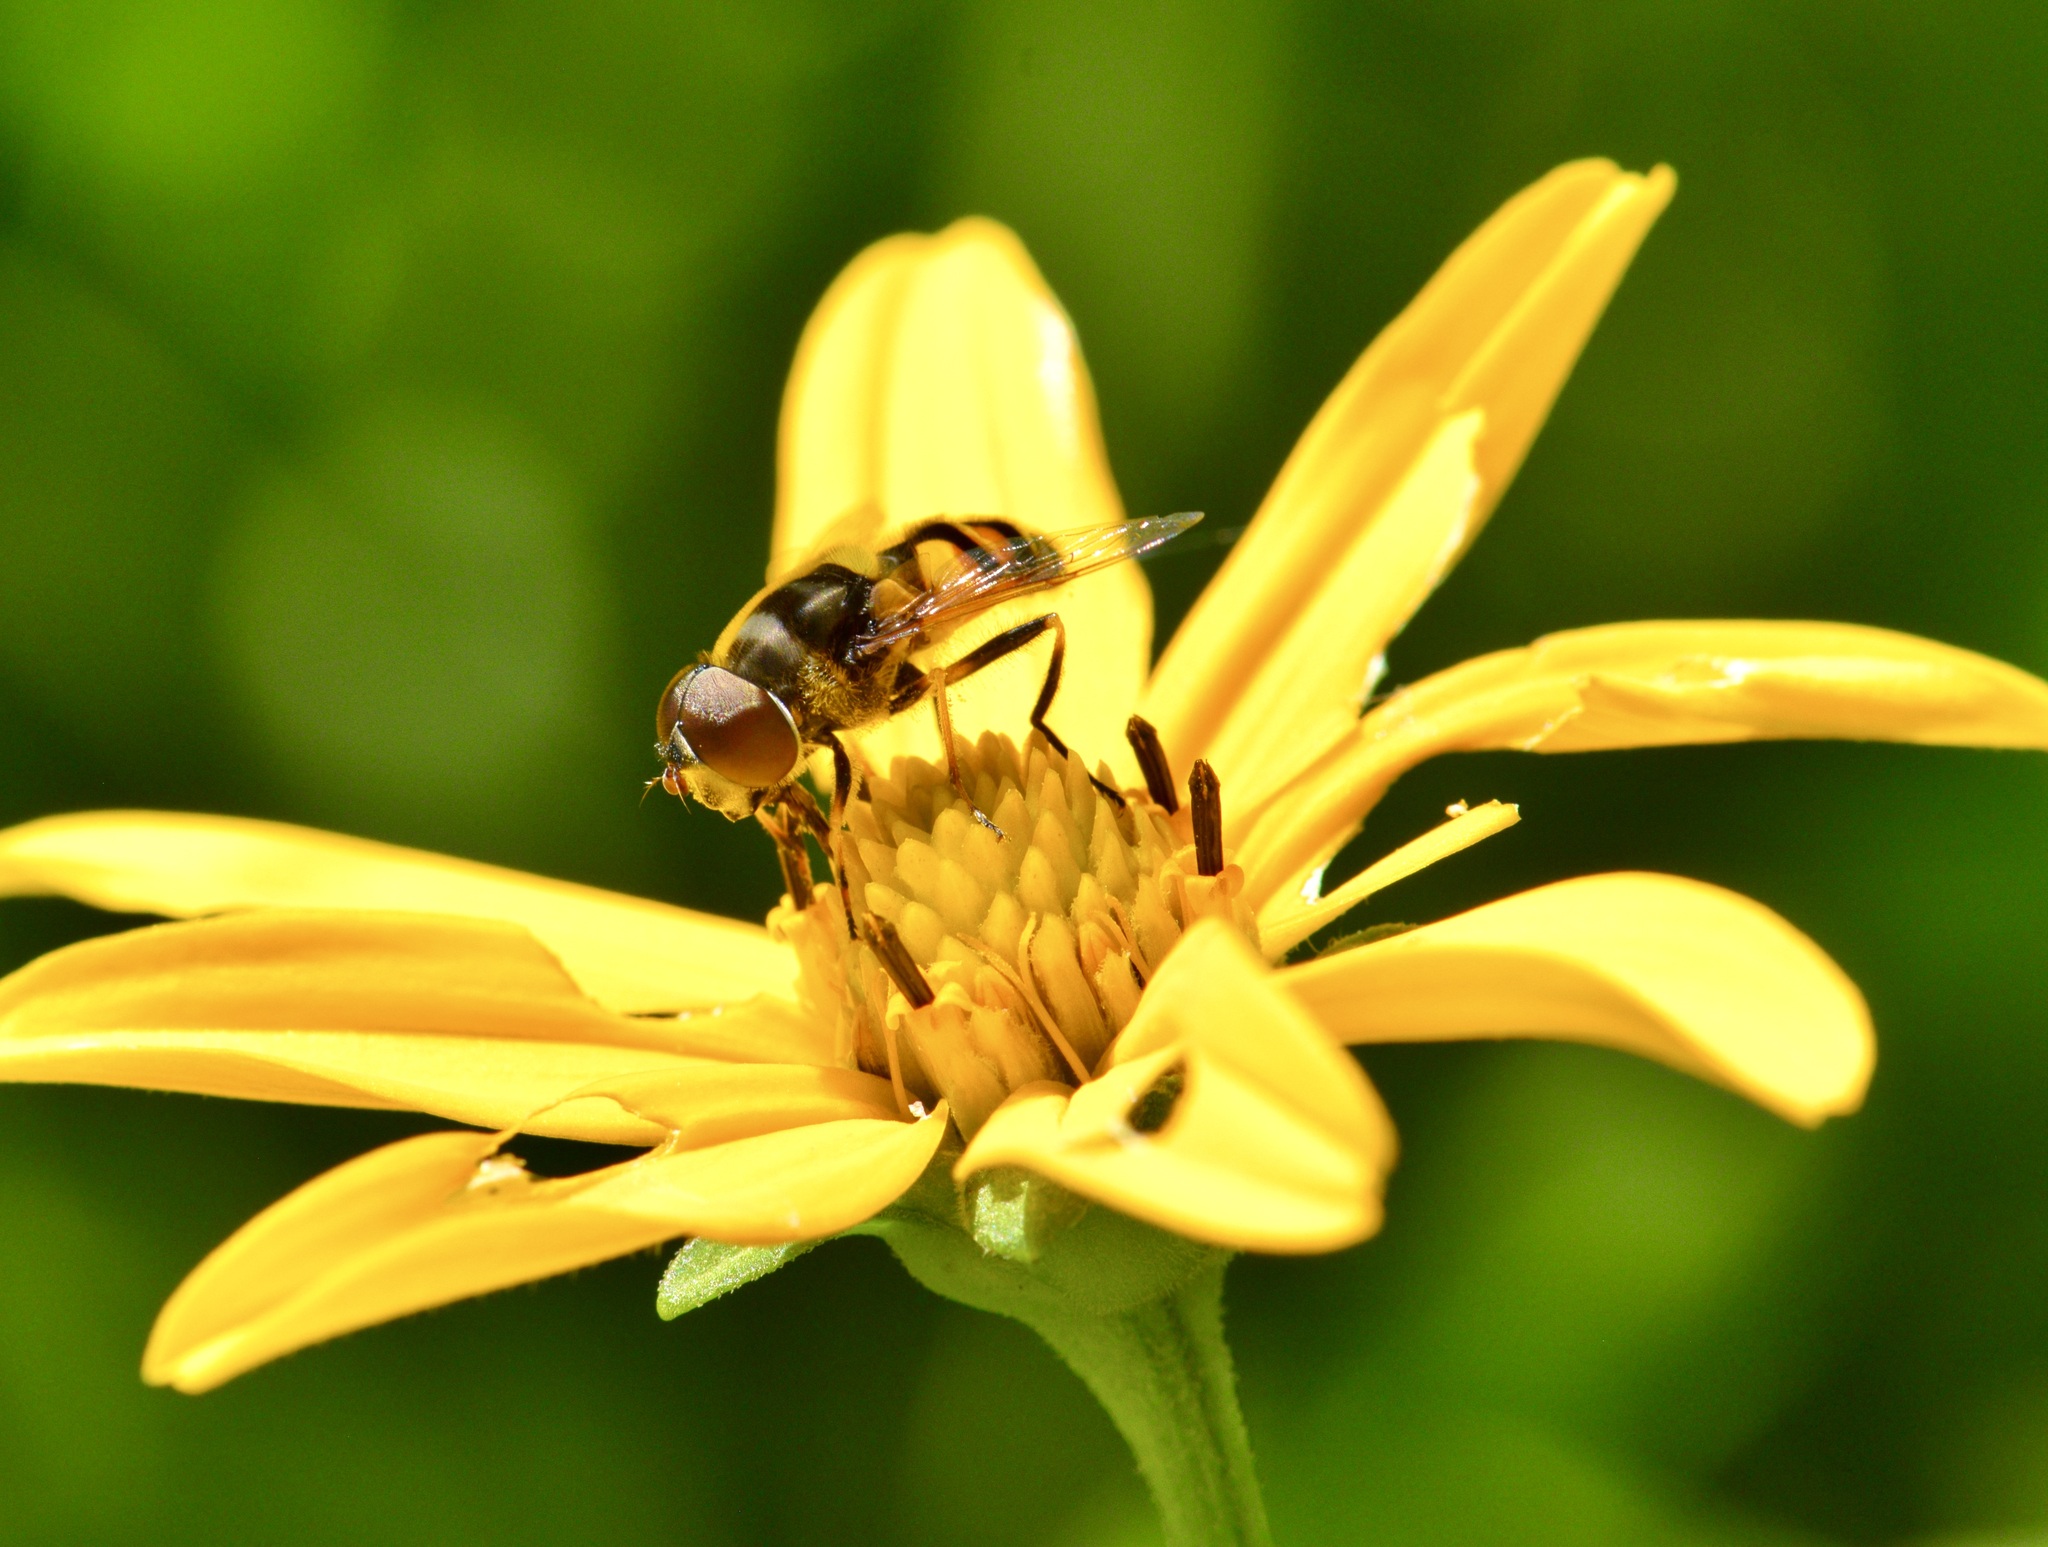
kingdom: Animalia
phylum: Arthropoda
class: Insecta
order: Diptera
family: Syrphidae
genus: Eristalis
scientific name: Eristalis transversa
